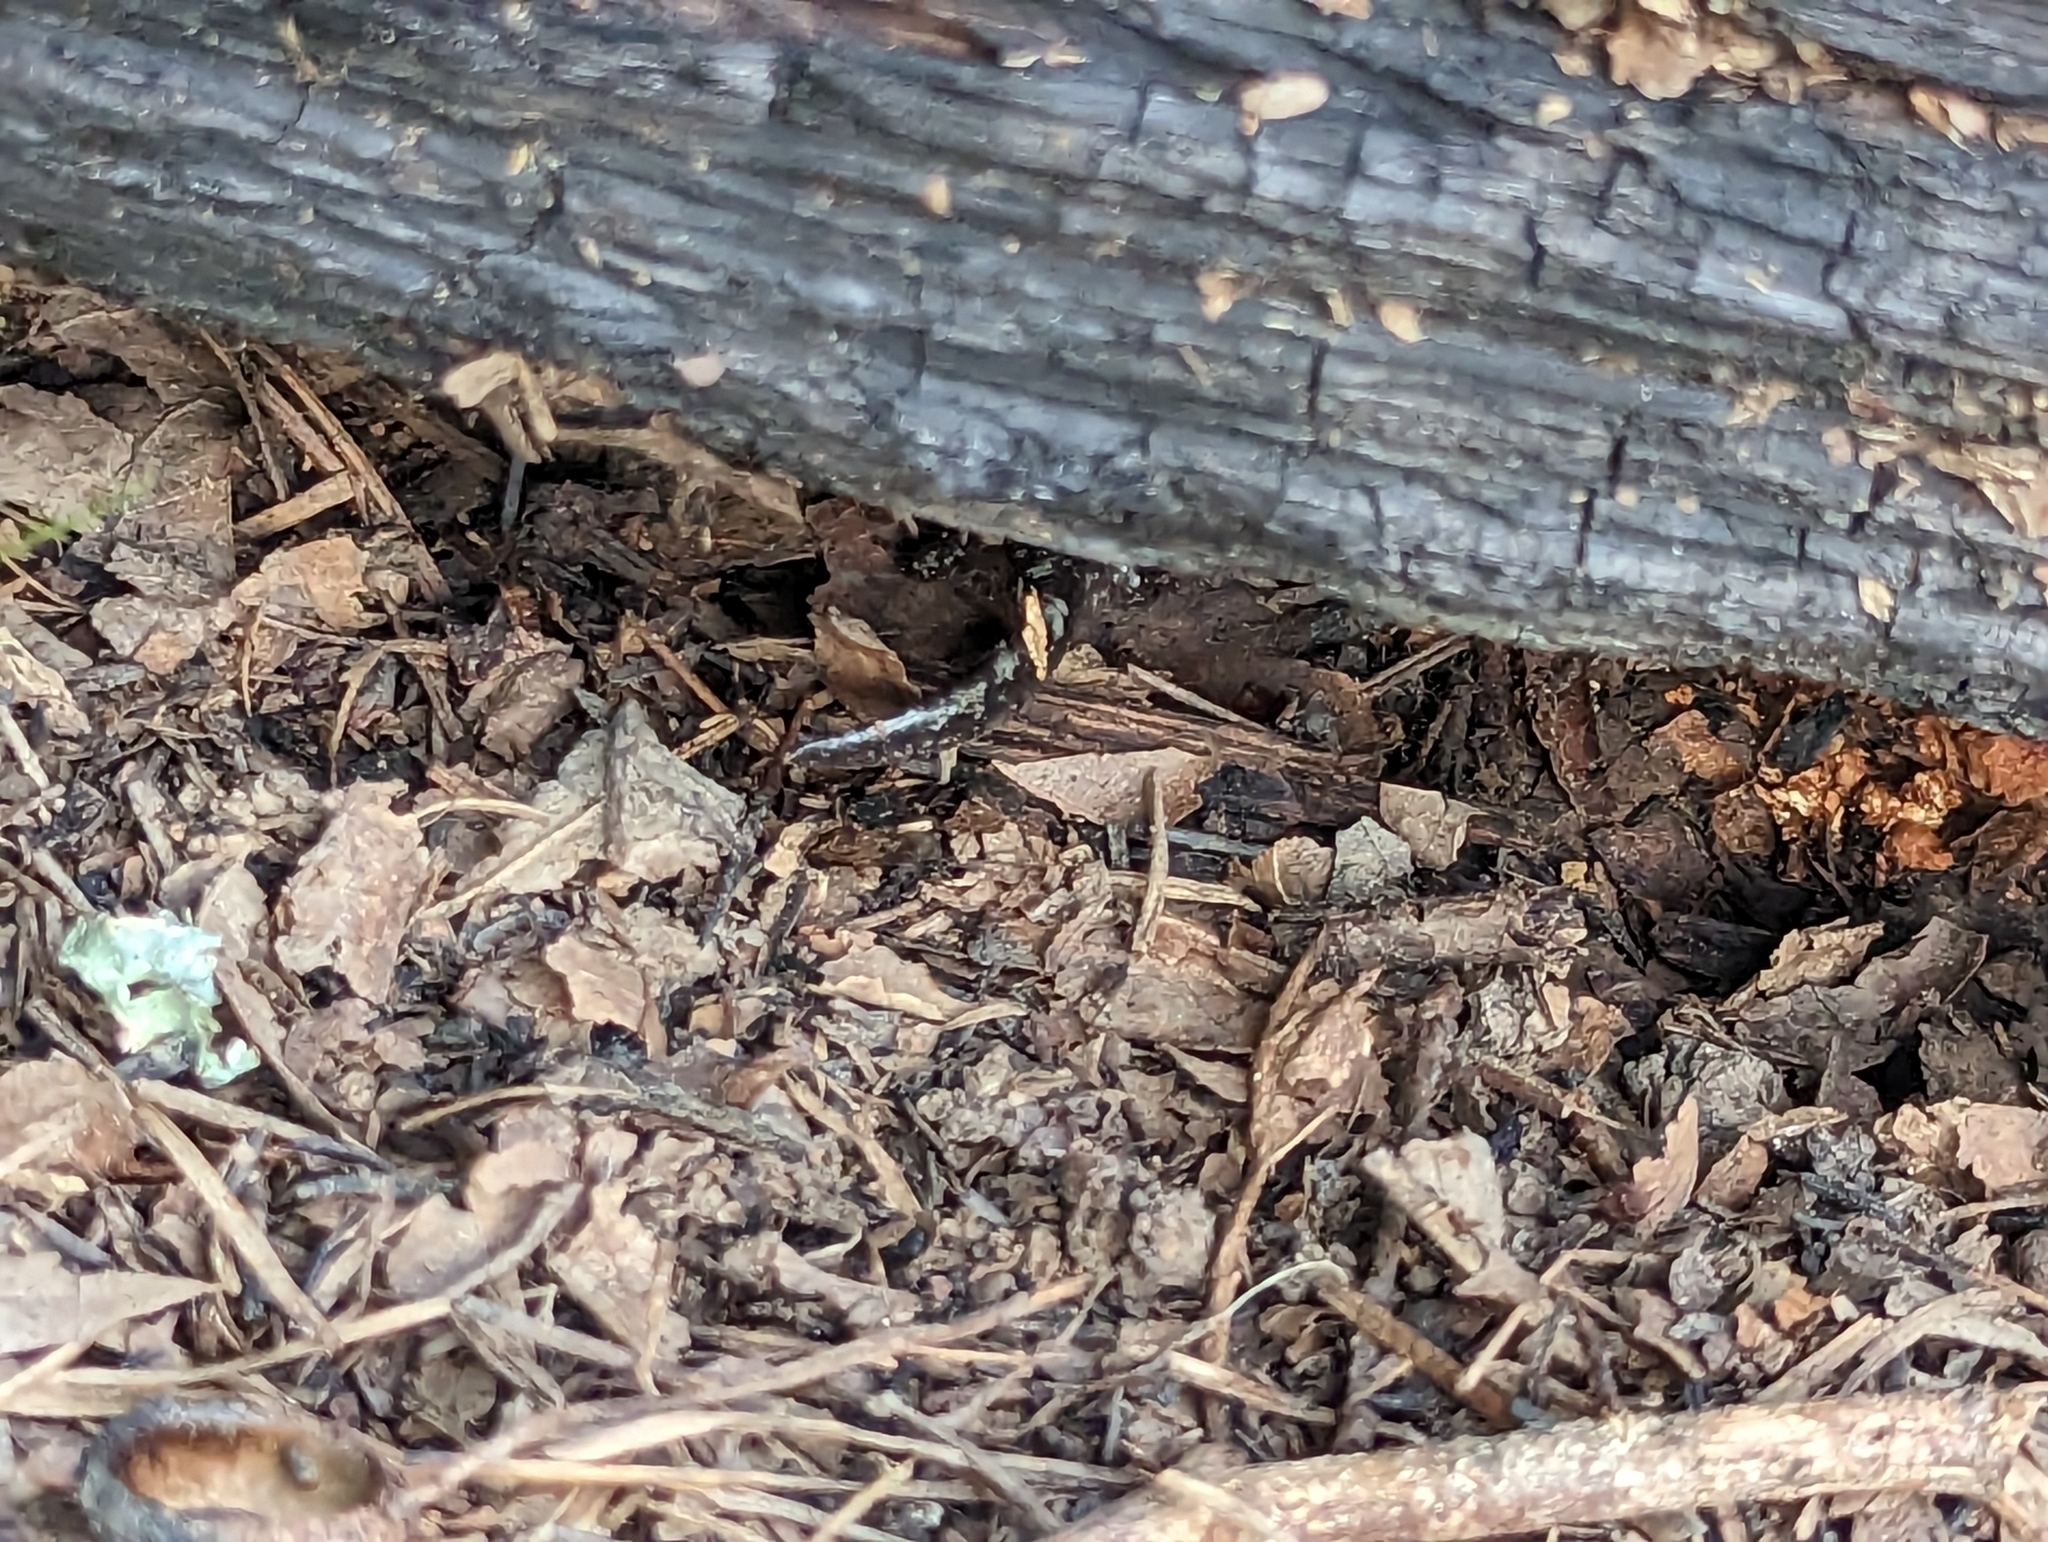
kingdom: Animalia
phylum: Chordata
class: Amphibia
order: Caudata
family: Ambystomatidae
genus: Ambystoma
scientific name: Ambystoma opacum
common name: Marbled salamander
